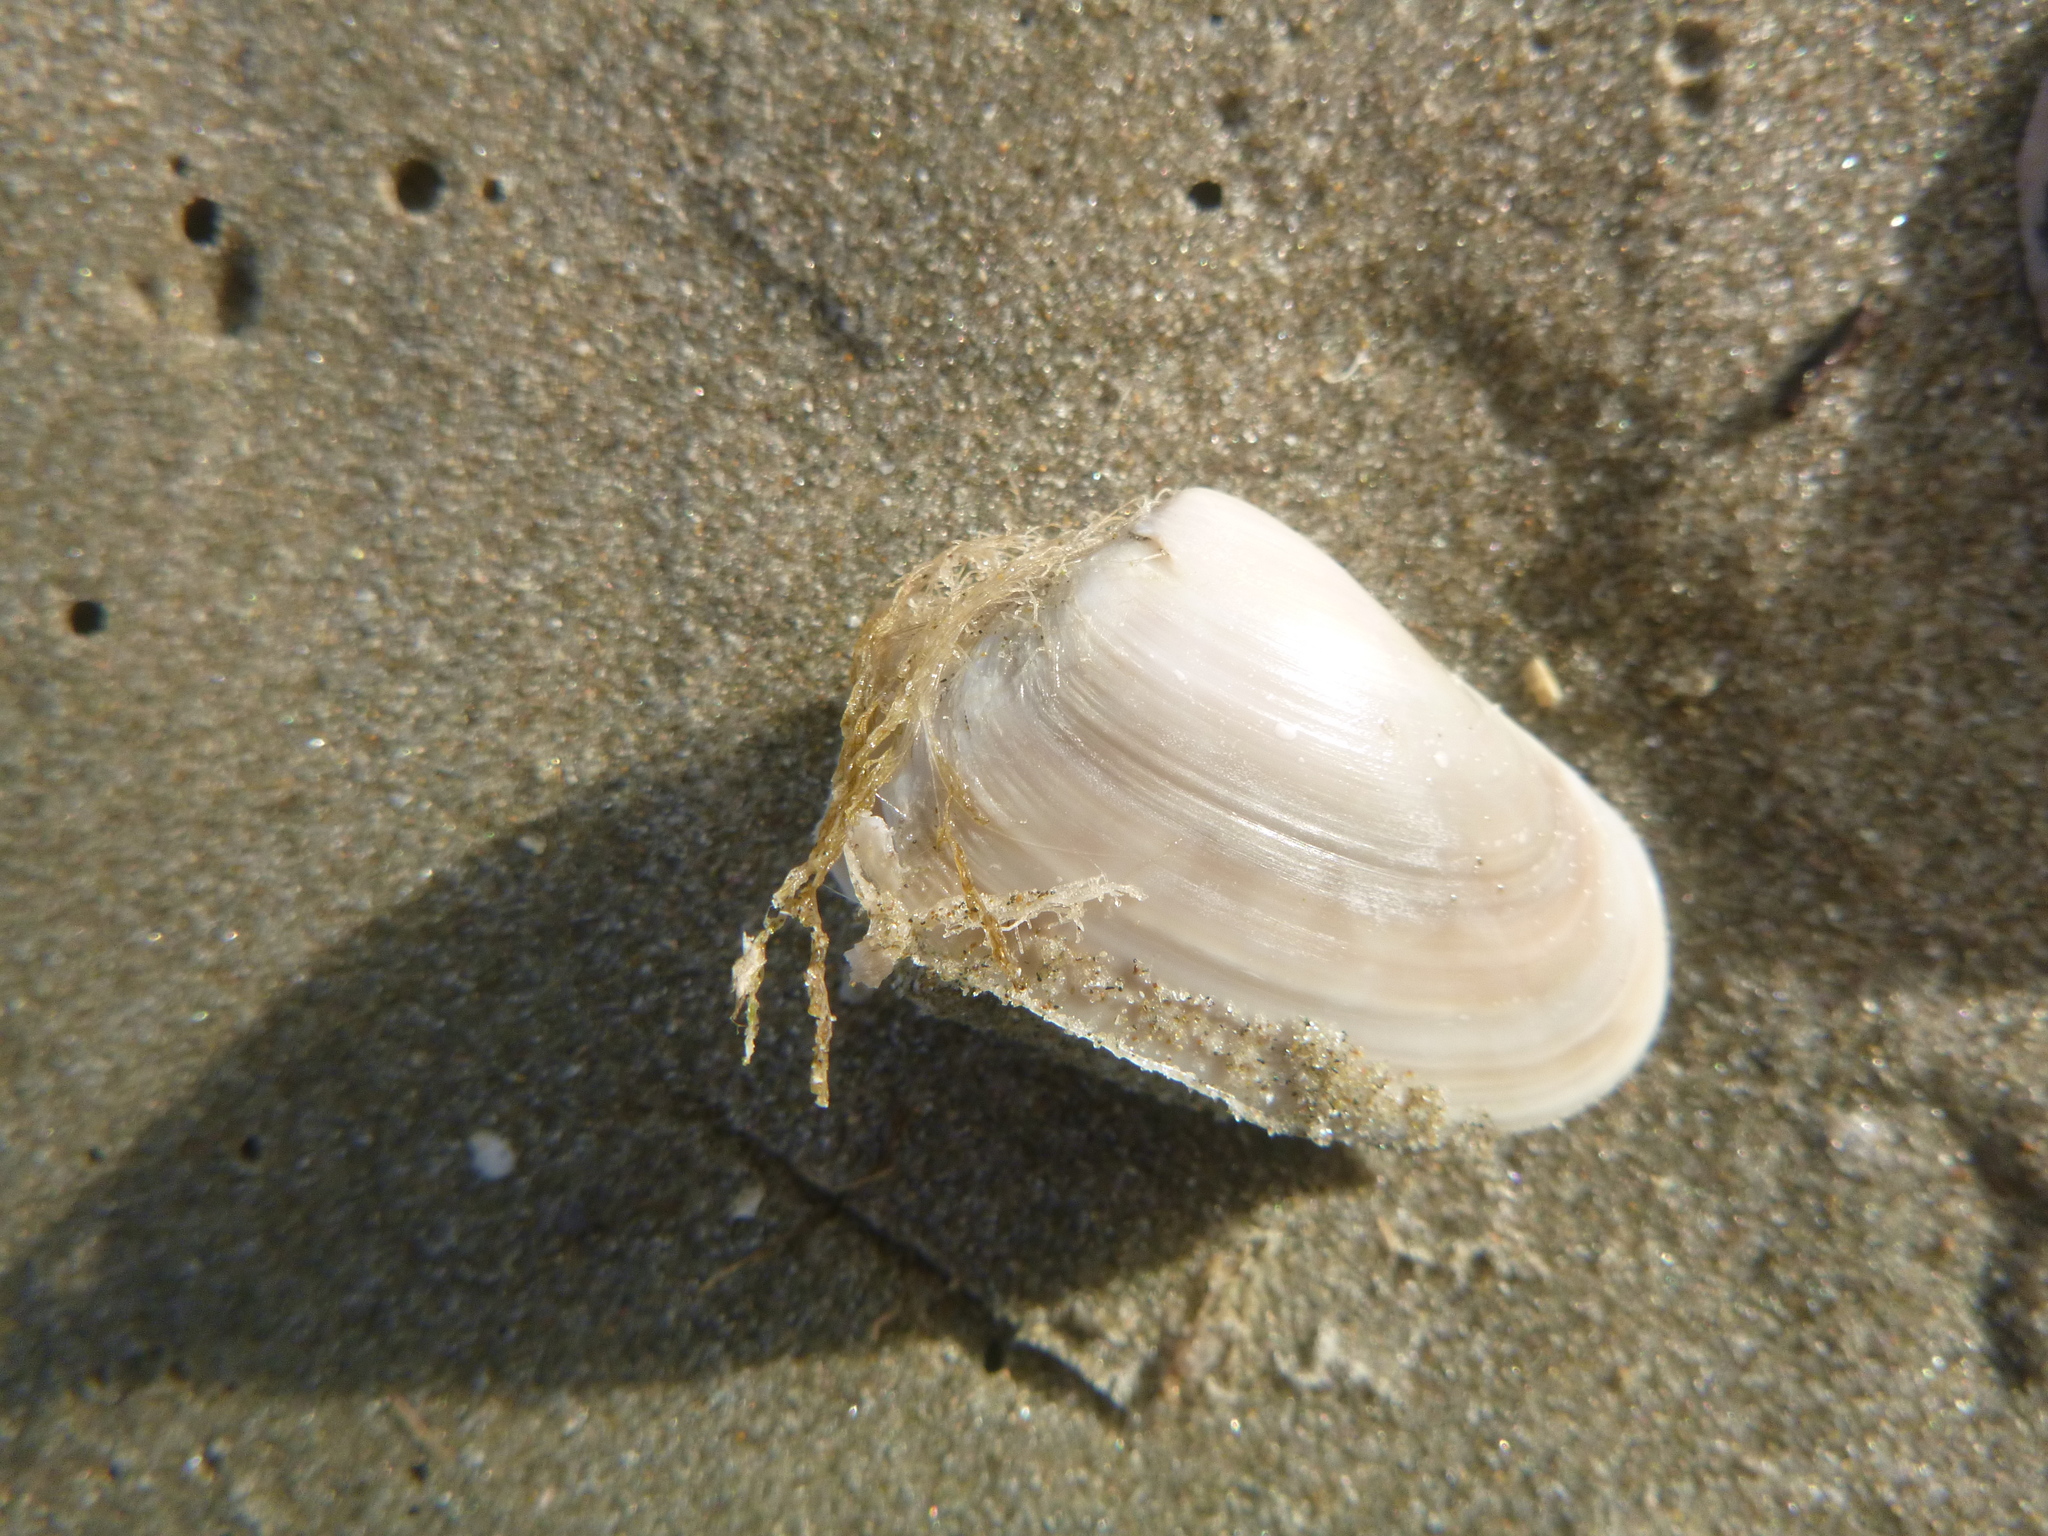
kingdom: Animalia
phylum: Mollusca
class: Bivalvia
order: Venerida
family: Mesodesmatidae
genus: Paphies
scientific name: Paphies subtriangulata
